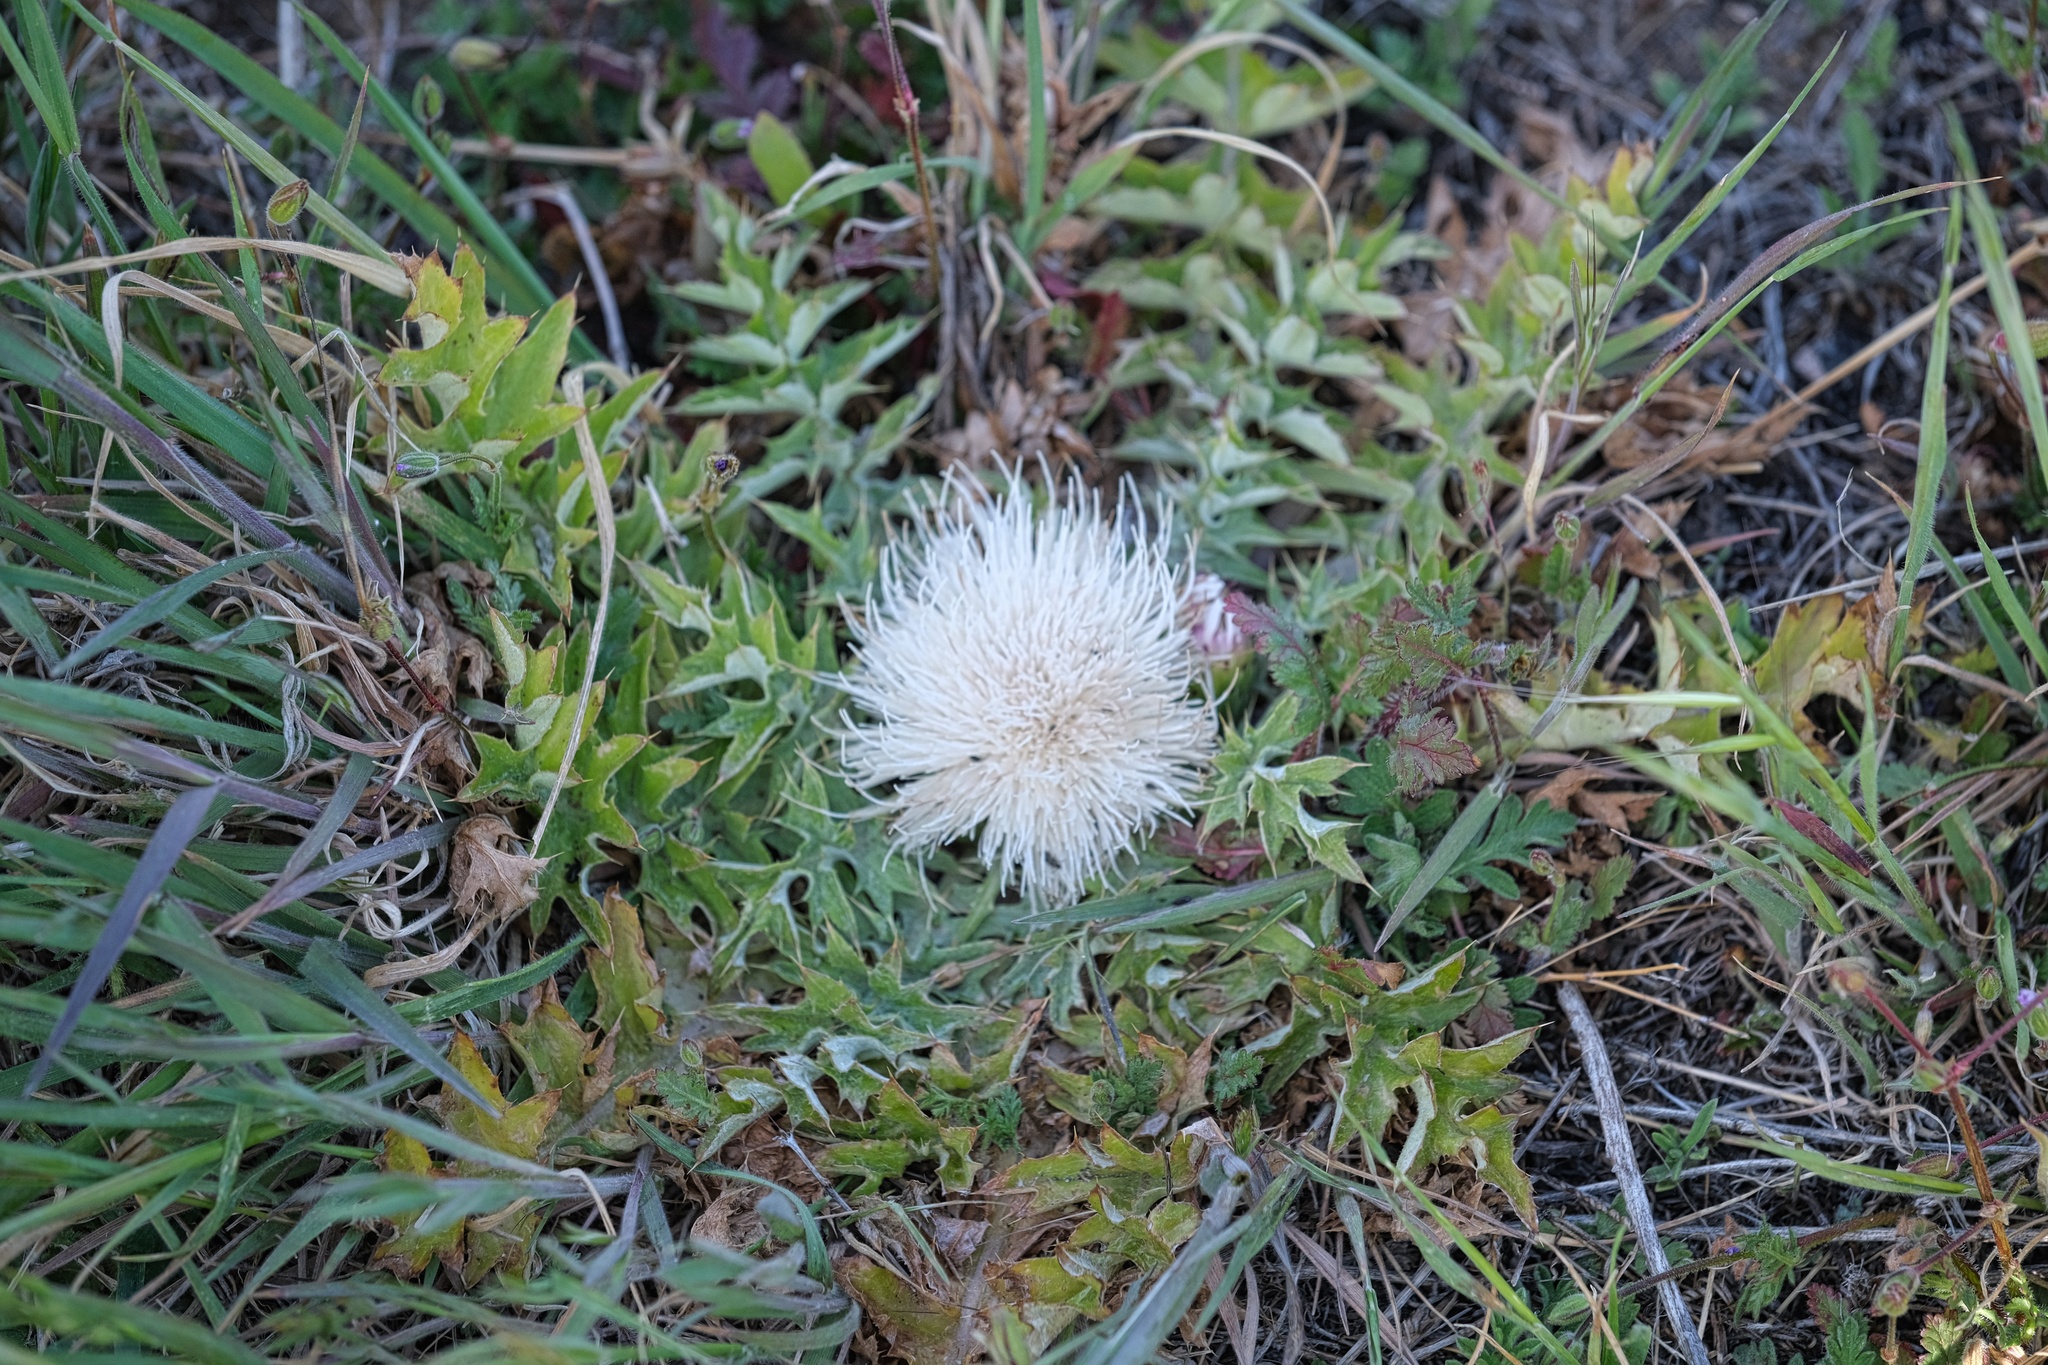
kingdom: Plantae
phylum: Tracheophyta
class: Magnoliopsida
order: Asterales
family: Asteraceae
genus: Cirsium
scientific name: Cirsium tioganum
